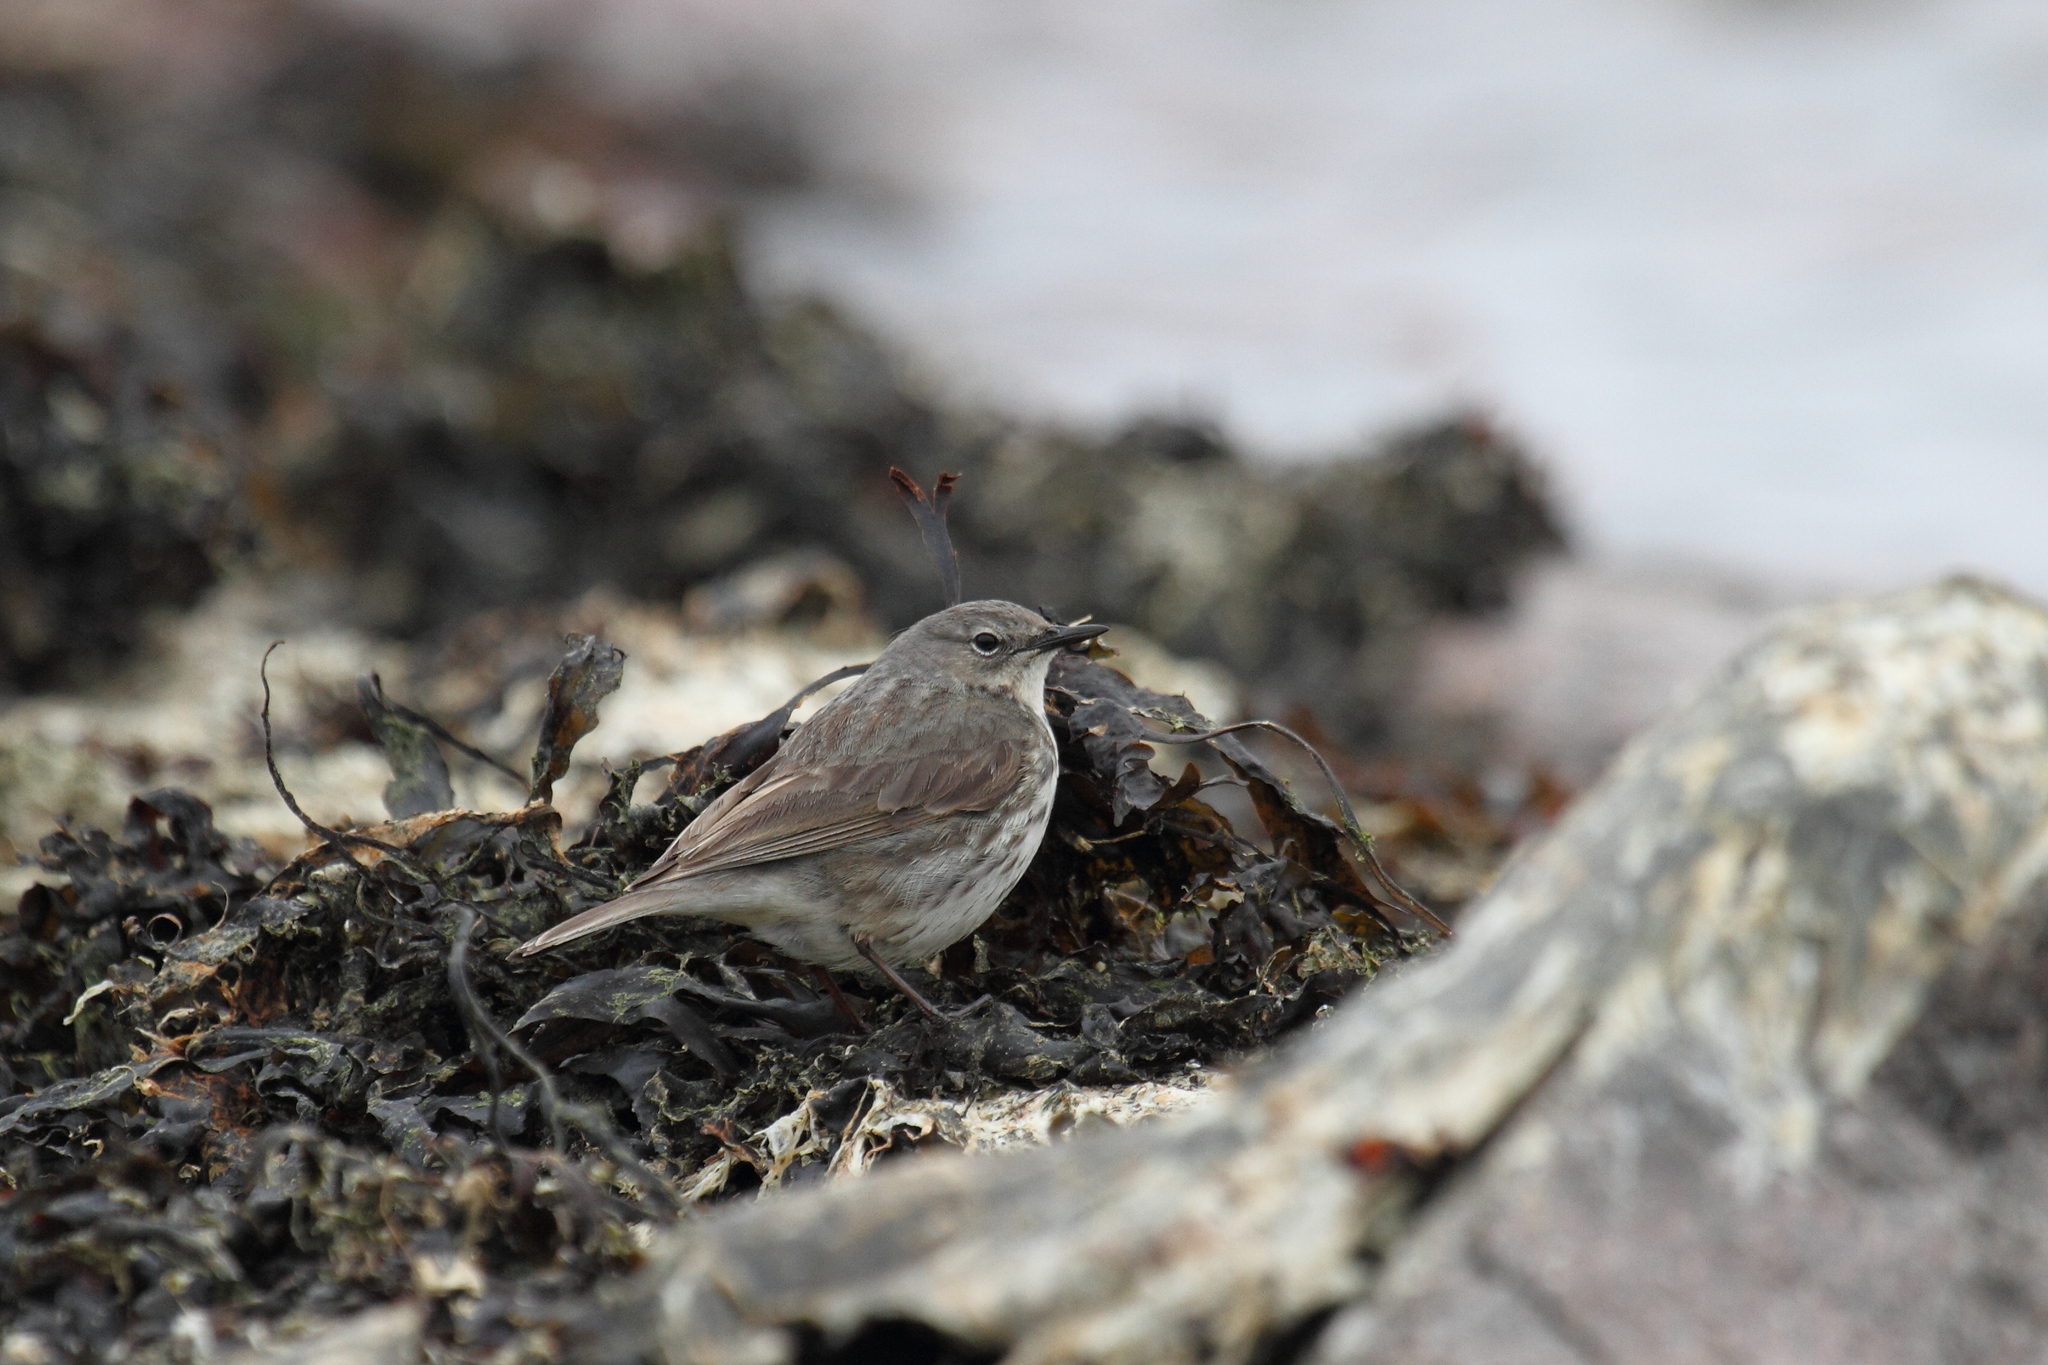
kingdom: Animalia
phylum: Chordata
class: Aves
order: Passeriformes
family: Motacillidae
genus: Anthus
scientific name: Anthus petrosus
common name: Eurasian rock pipit
